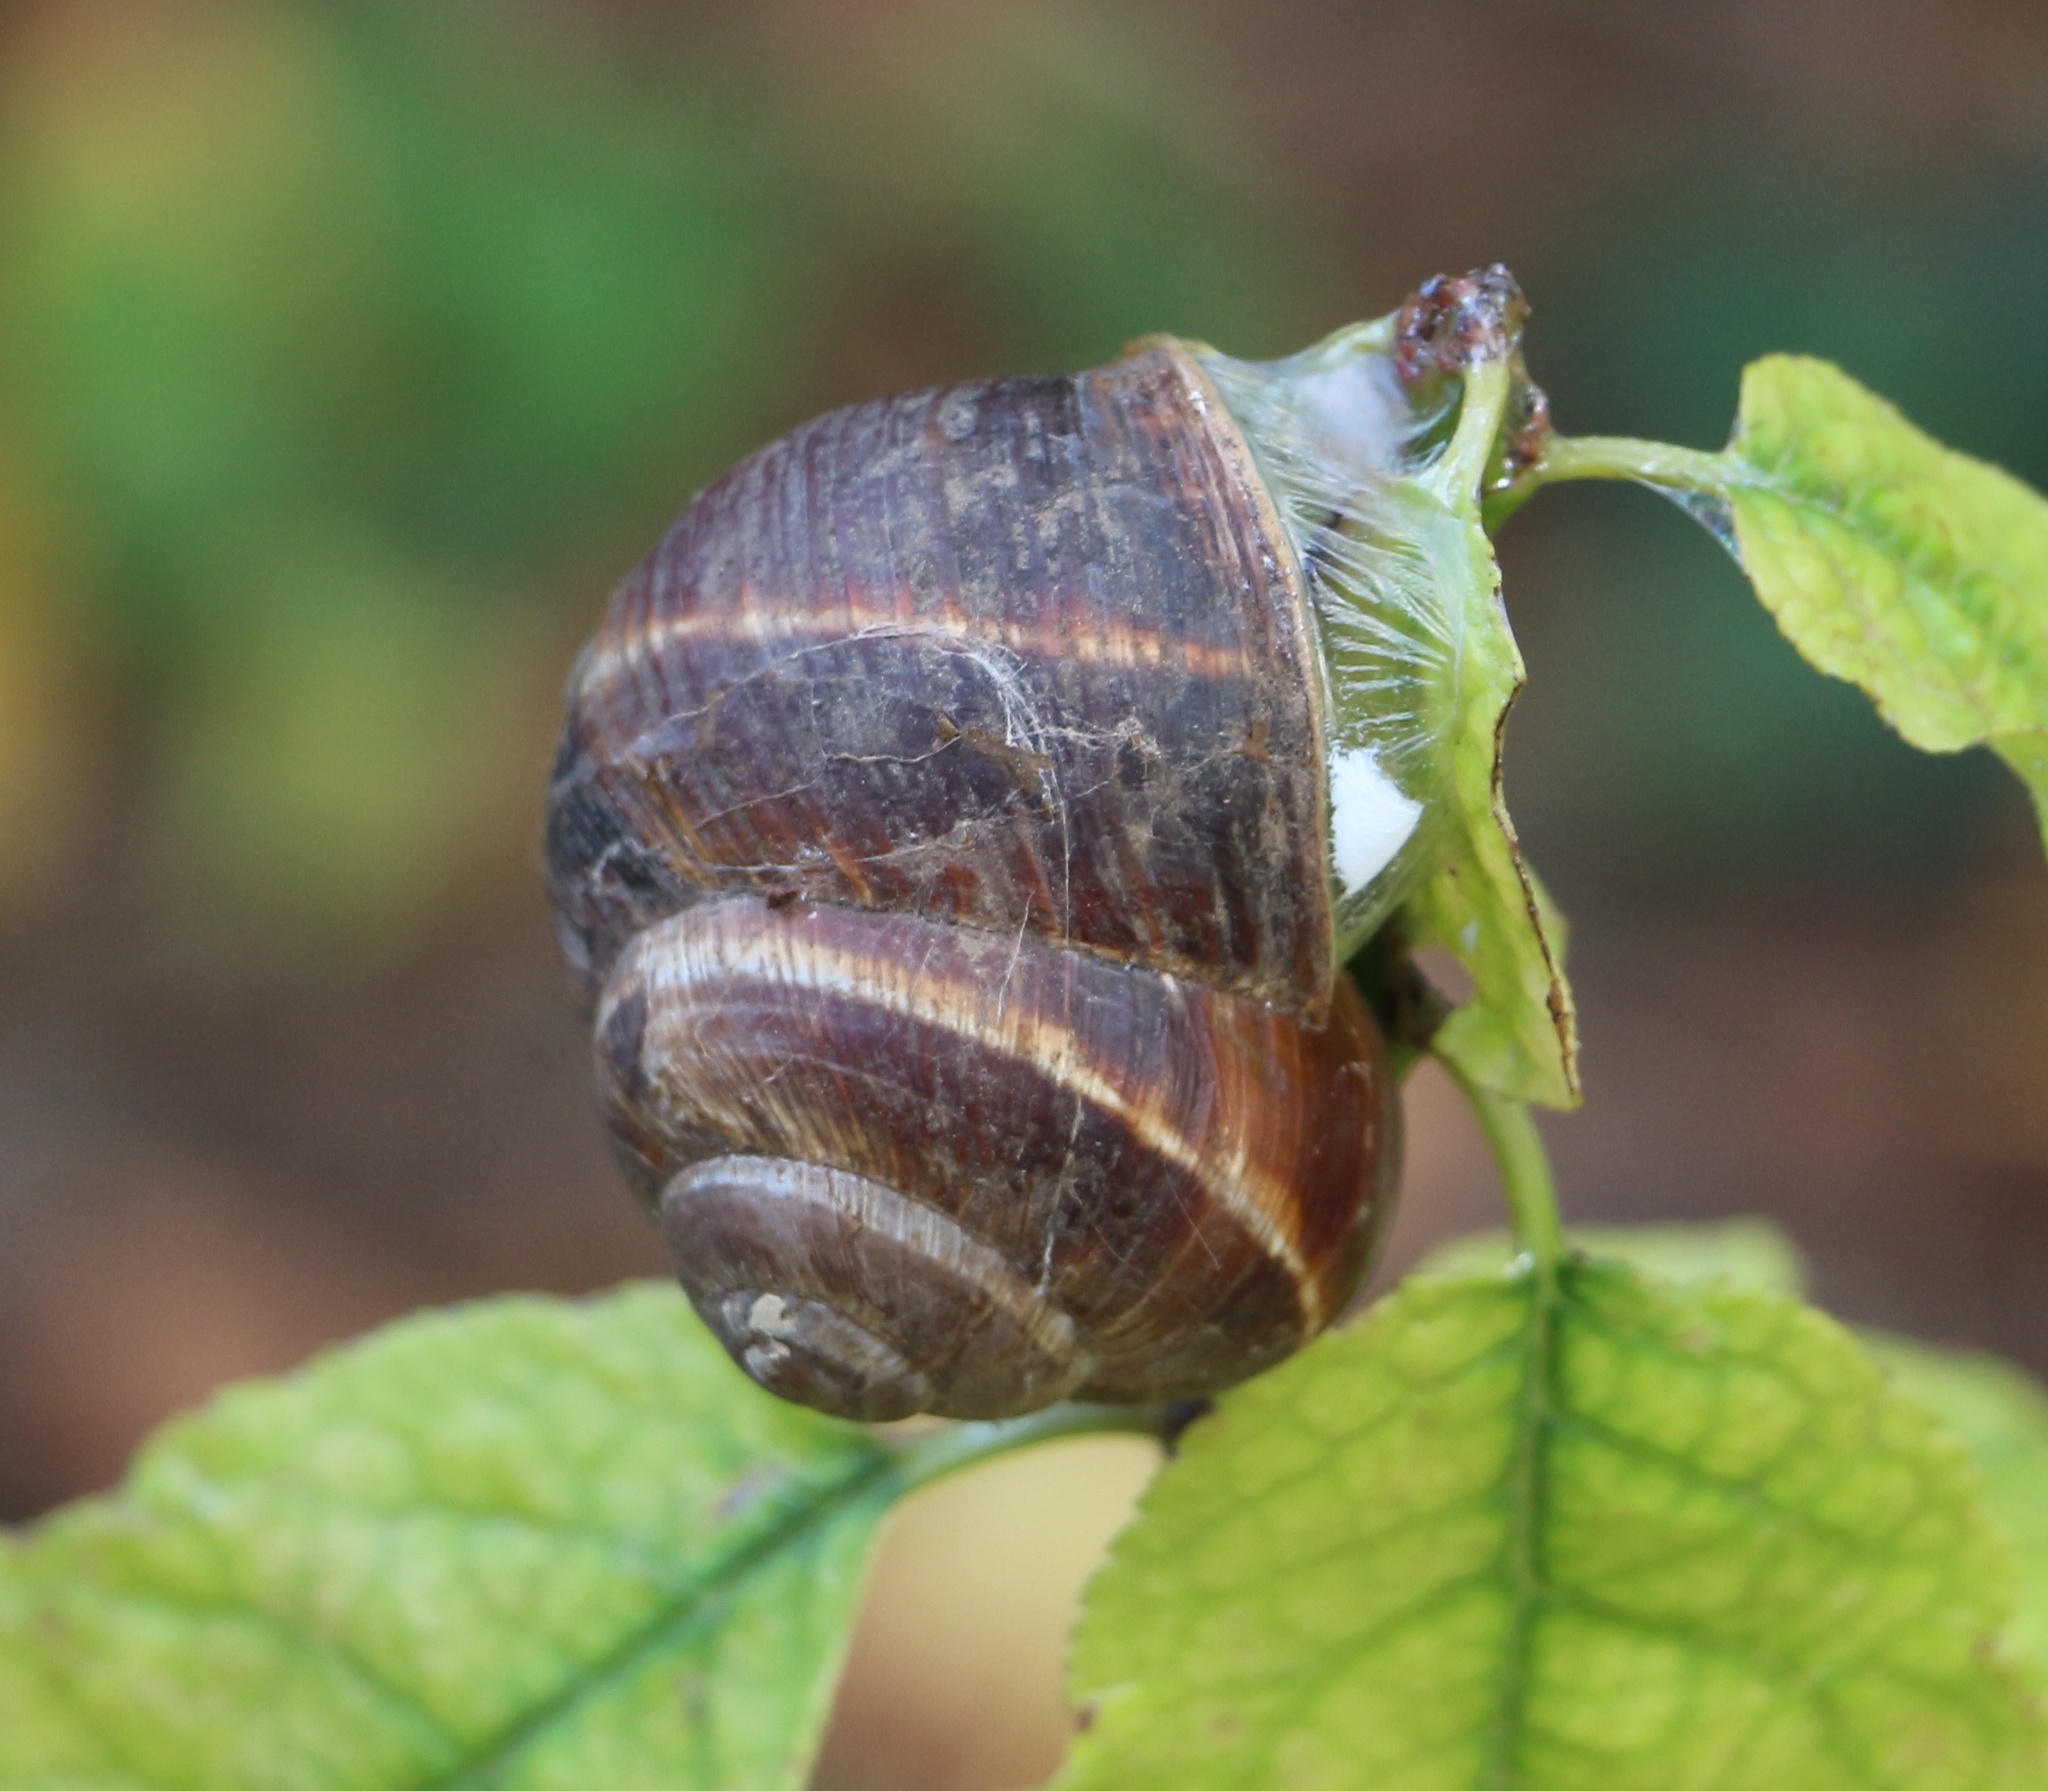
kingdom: Animalia
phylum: Mollusca
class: Gastropoda
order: Stylommatophora
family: Helicidae
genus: Helix
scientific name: Helix lucorum
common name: Turkish snail
